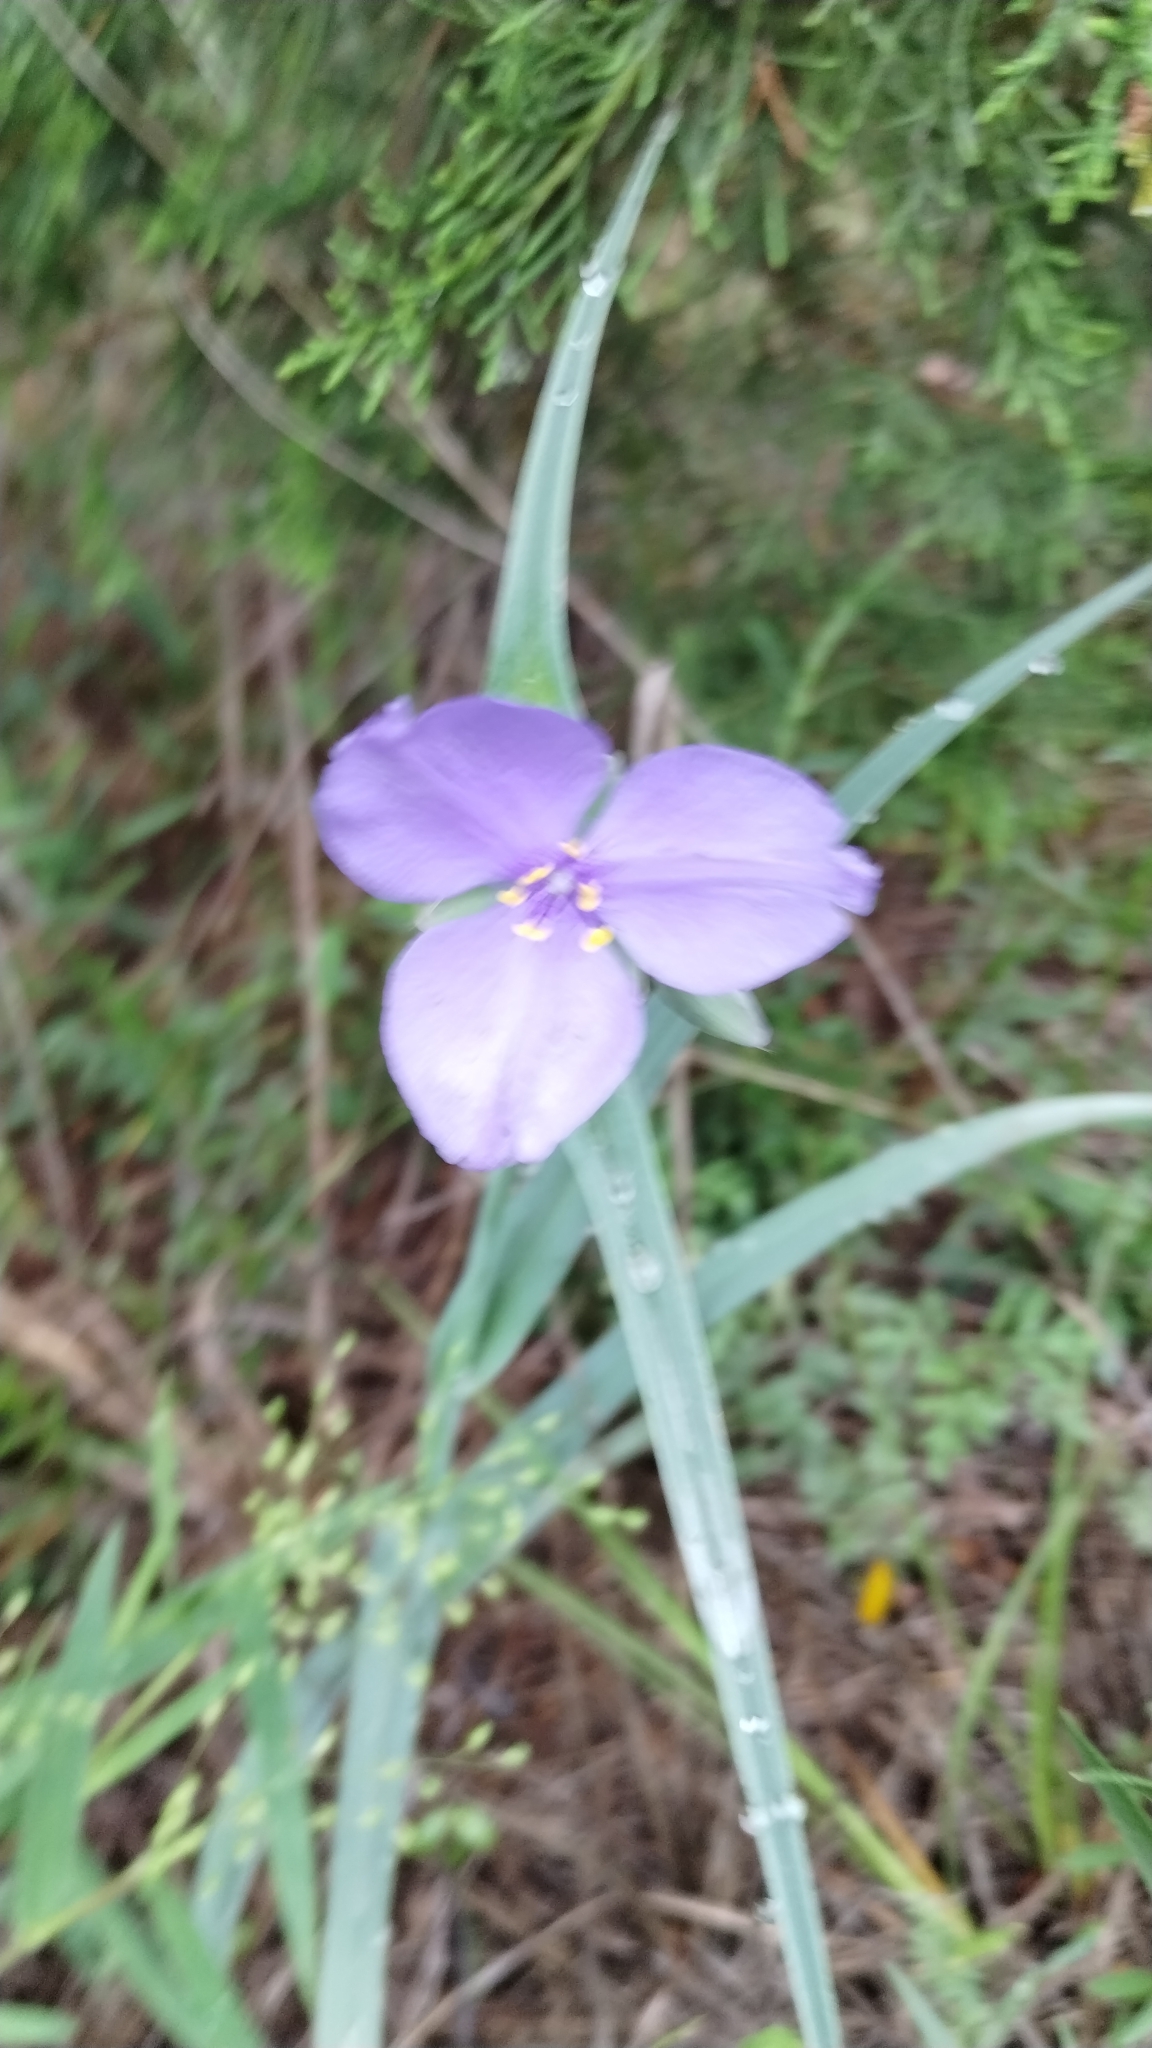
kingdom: Plantae
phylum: Tracheophyta
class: Liliopsida
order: Commelinales
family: Commelinaceae
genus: Tradescantia
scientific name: Tradescantia ohiensis
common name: Ohio spiderwort
